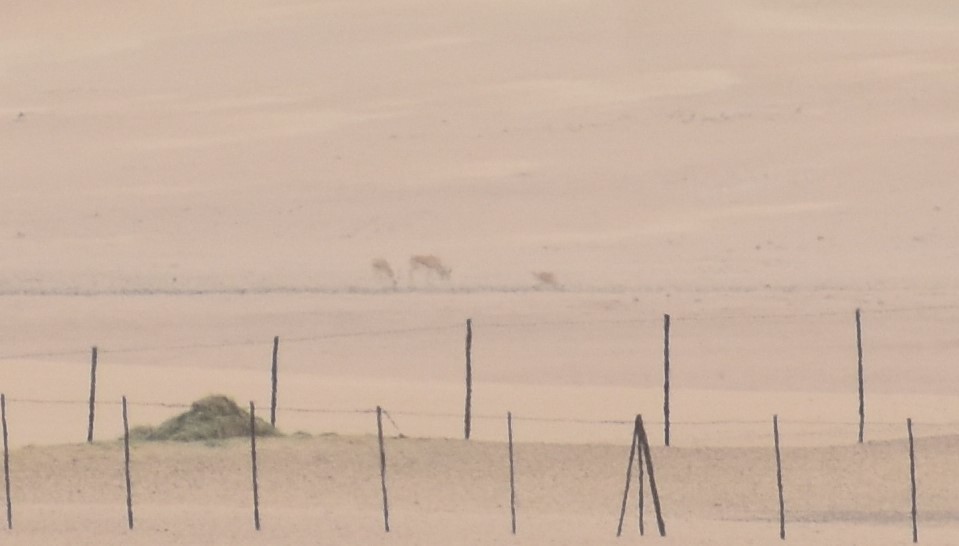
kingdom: Animalia
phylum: Chordata
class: Mammalia
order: Artiodactyla
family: Bovidae
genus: Gazella
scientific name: Gazella arabica
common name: Arabian gazelle
